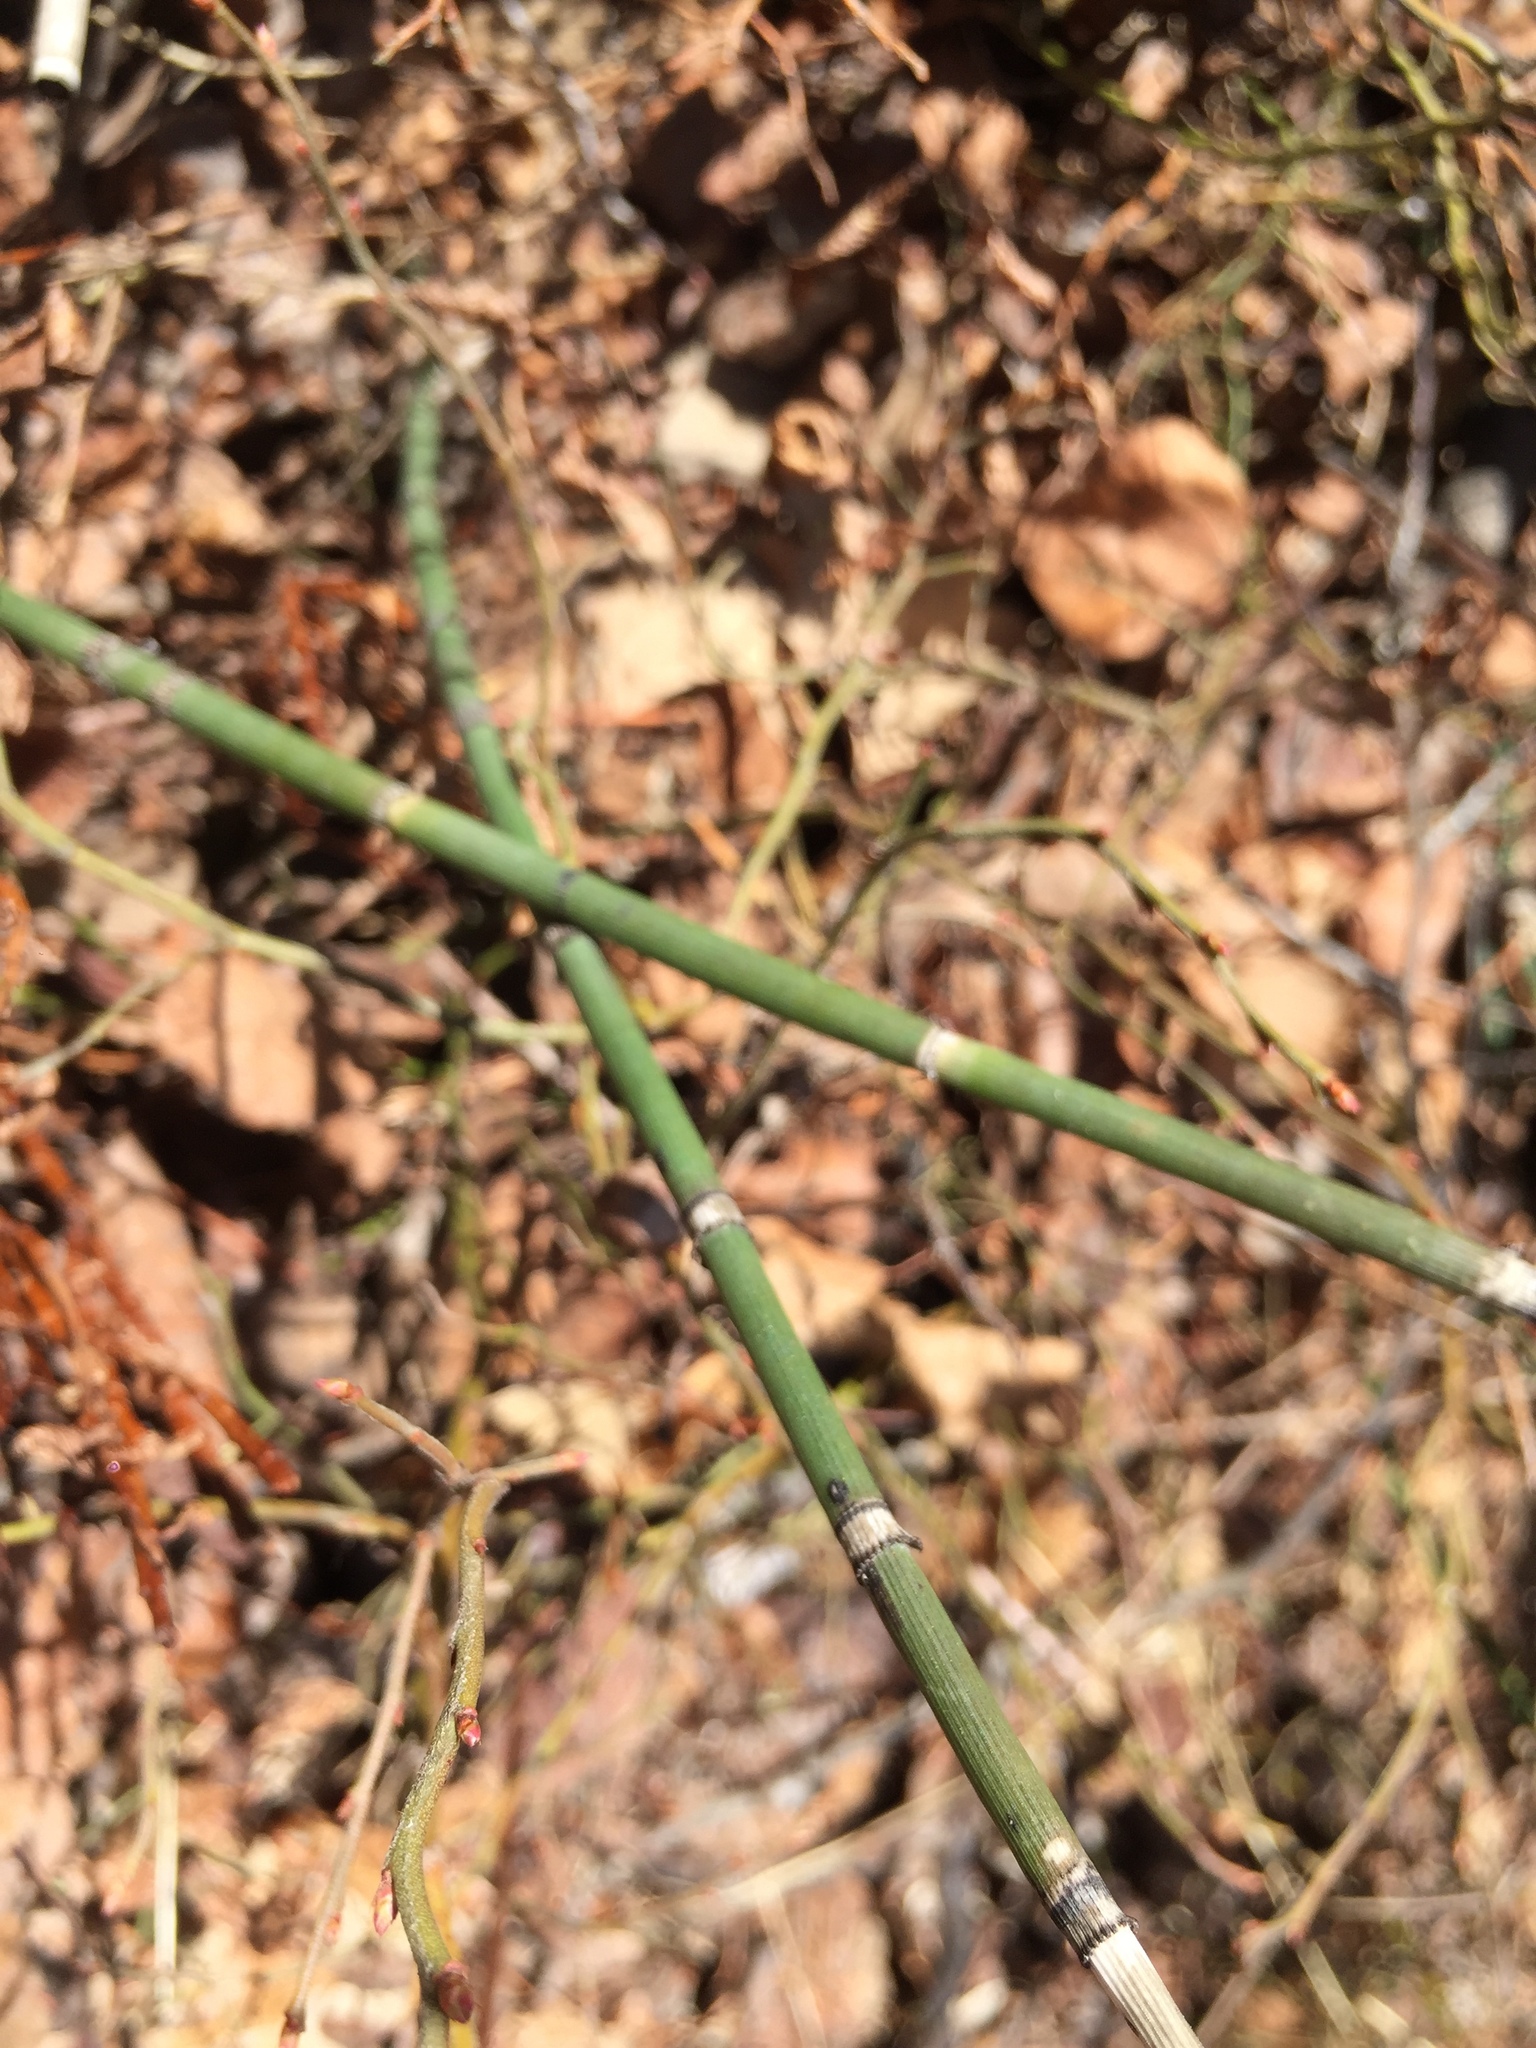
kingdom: Plantae
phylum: Tracheophyta
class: Polypodiopsida
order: Equisetales
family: Equisetaceae
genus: Equisetum
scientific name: Equisetum praealtum
